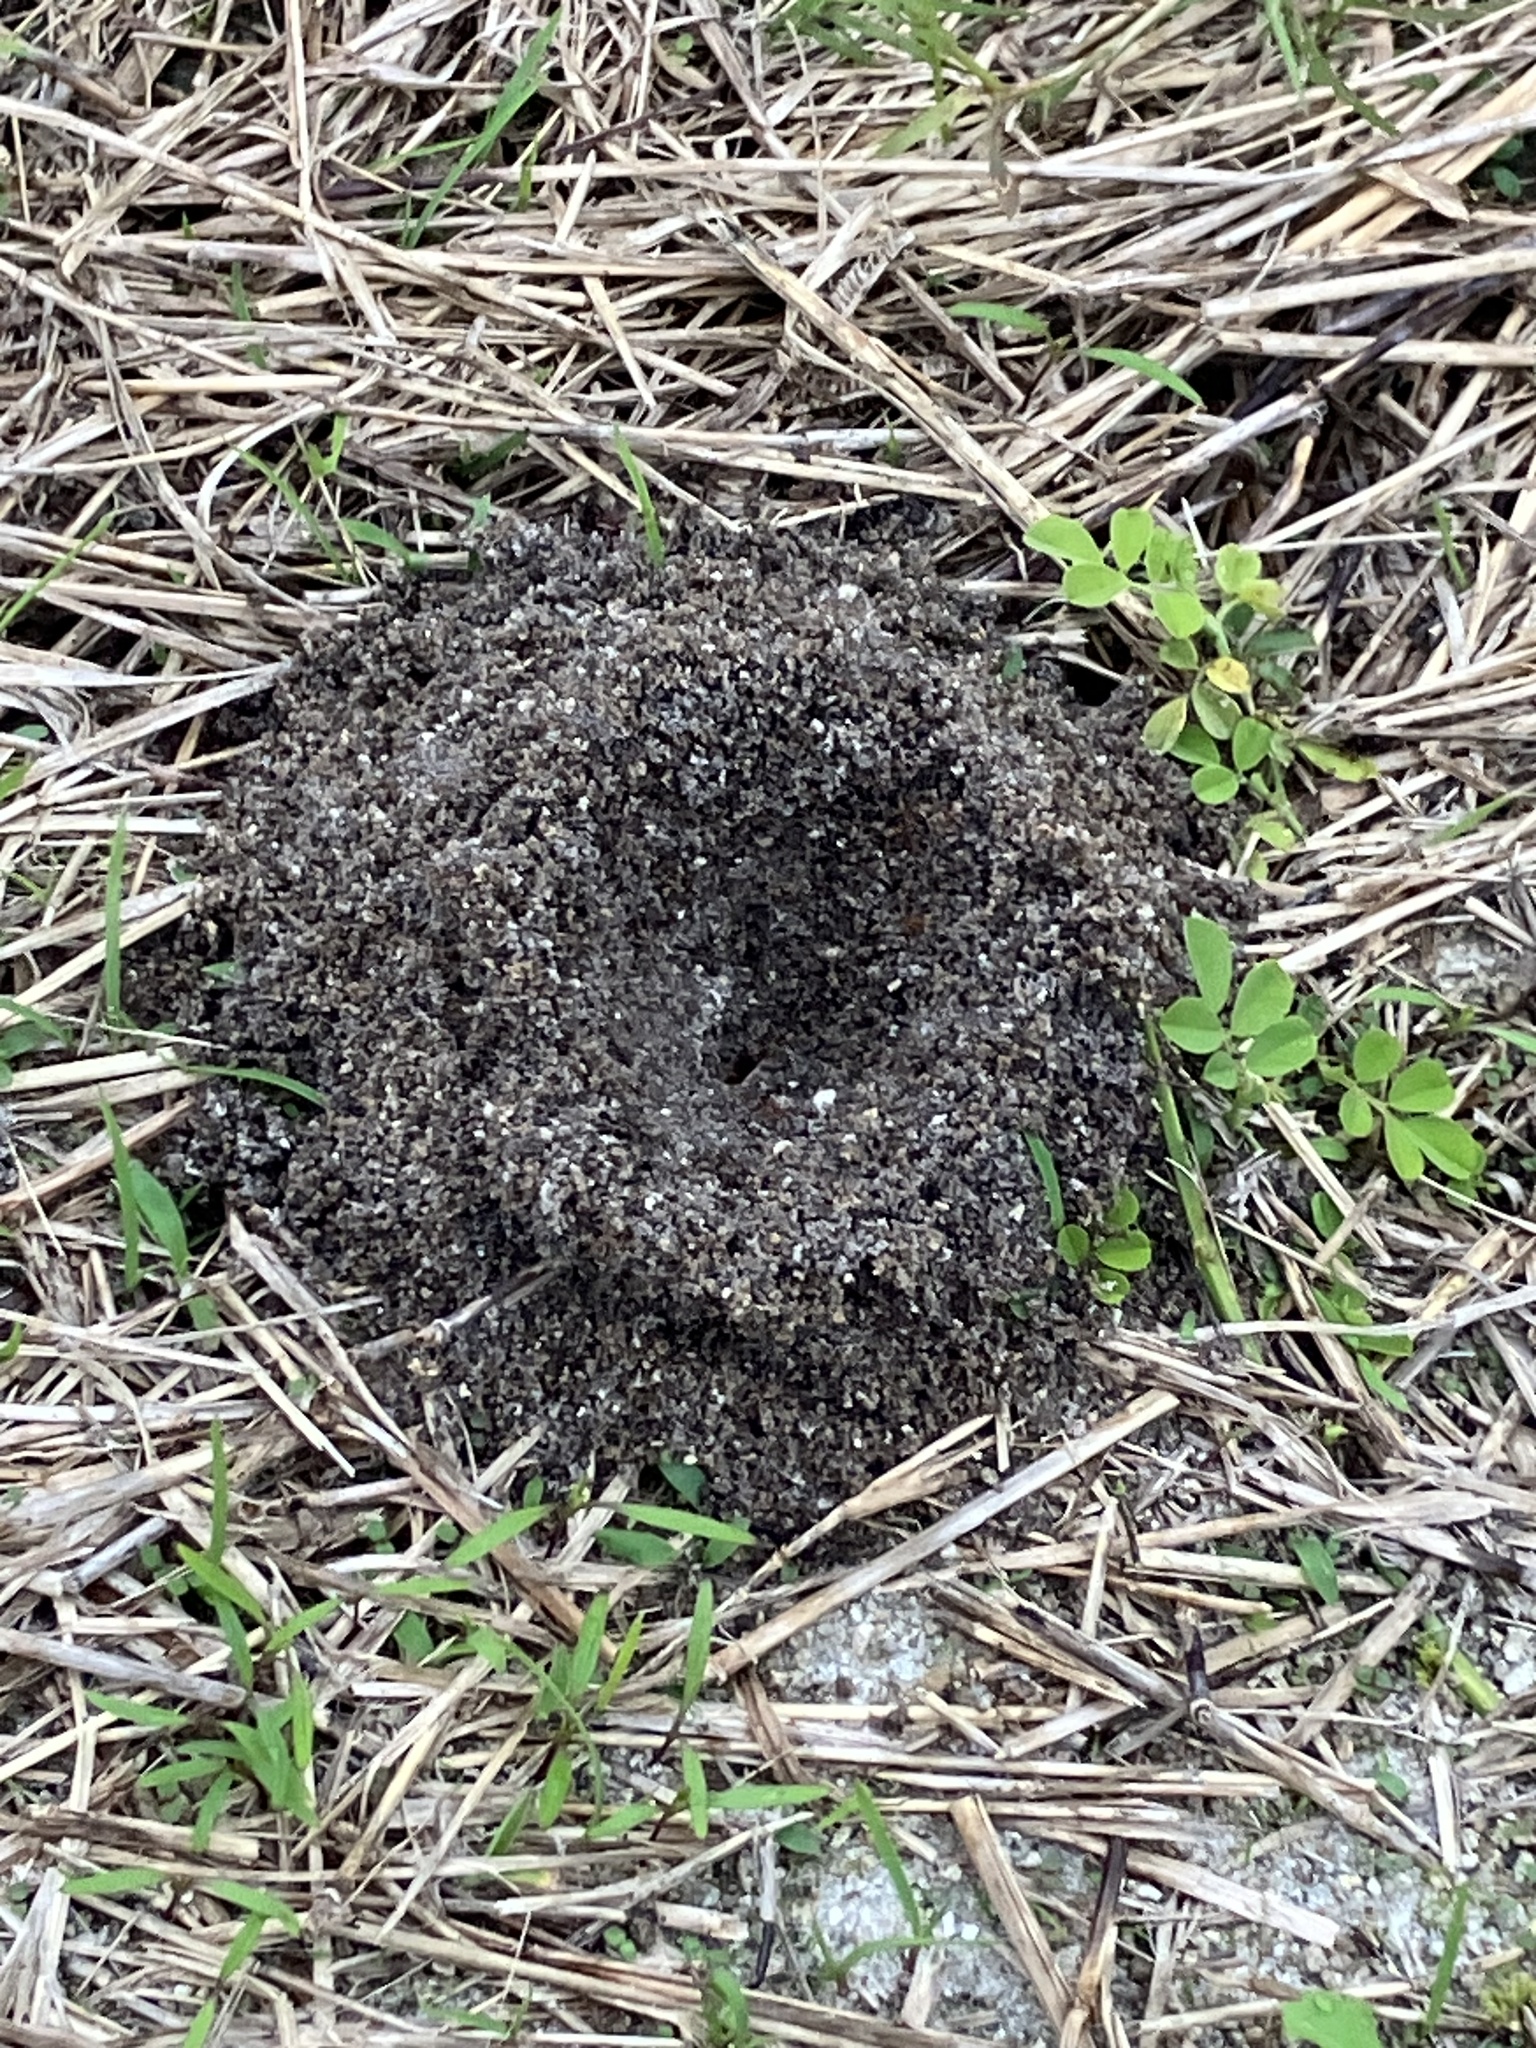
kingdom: Animalia
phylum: Arthropoda
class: Insecta
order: Hymenoptera
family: Formicidae
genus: Dorymyrmex
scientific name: Dorymyrmex
